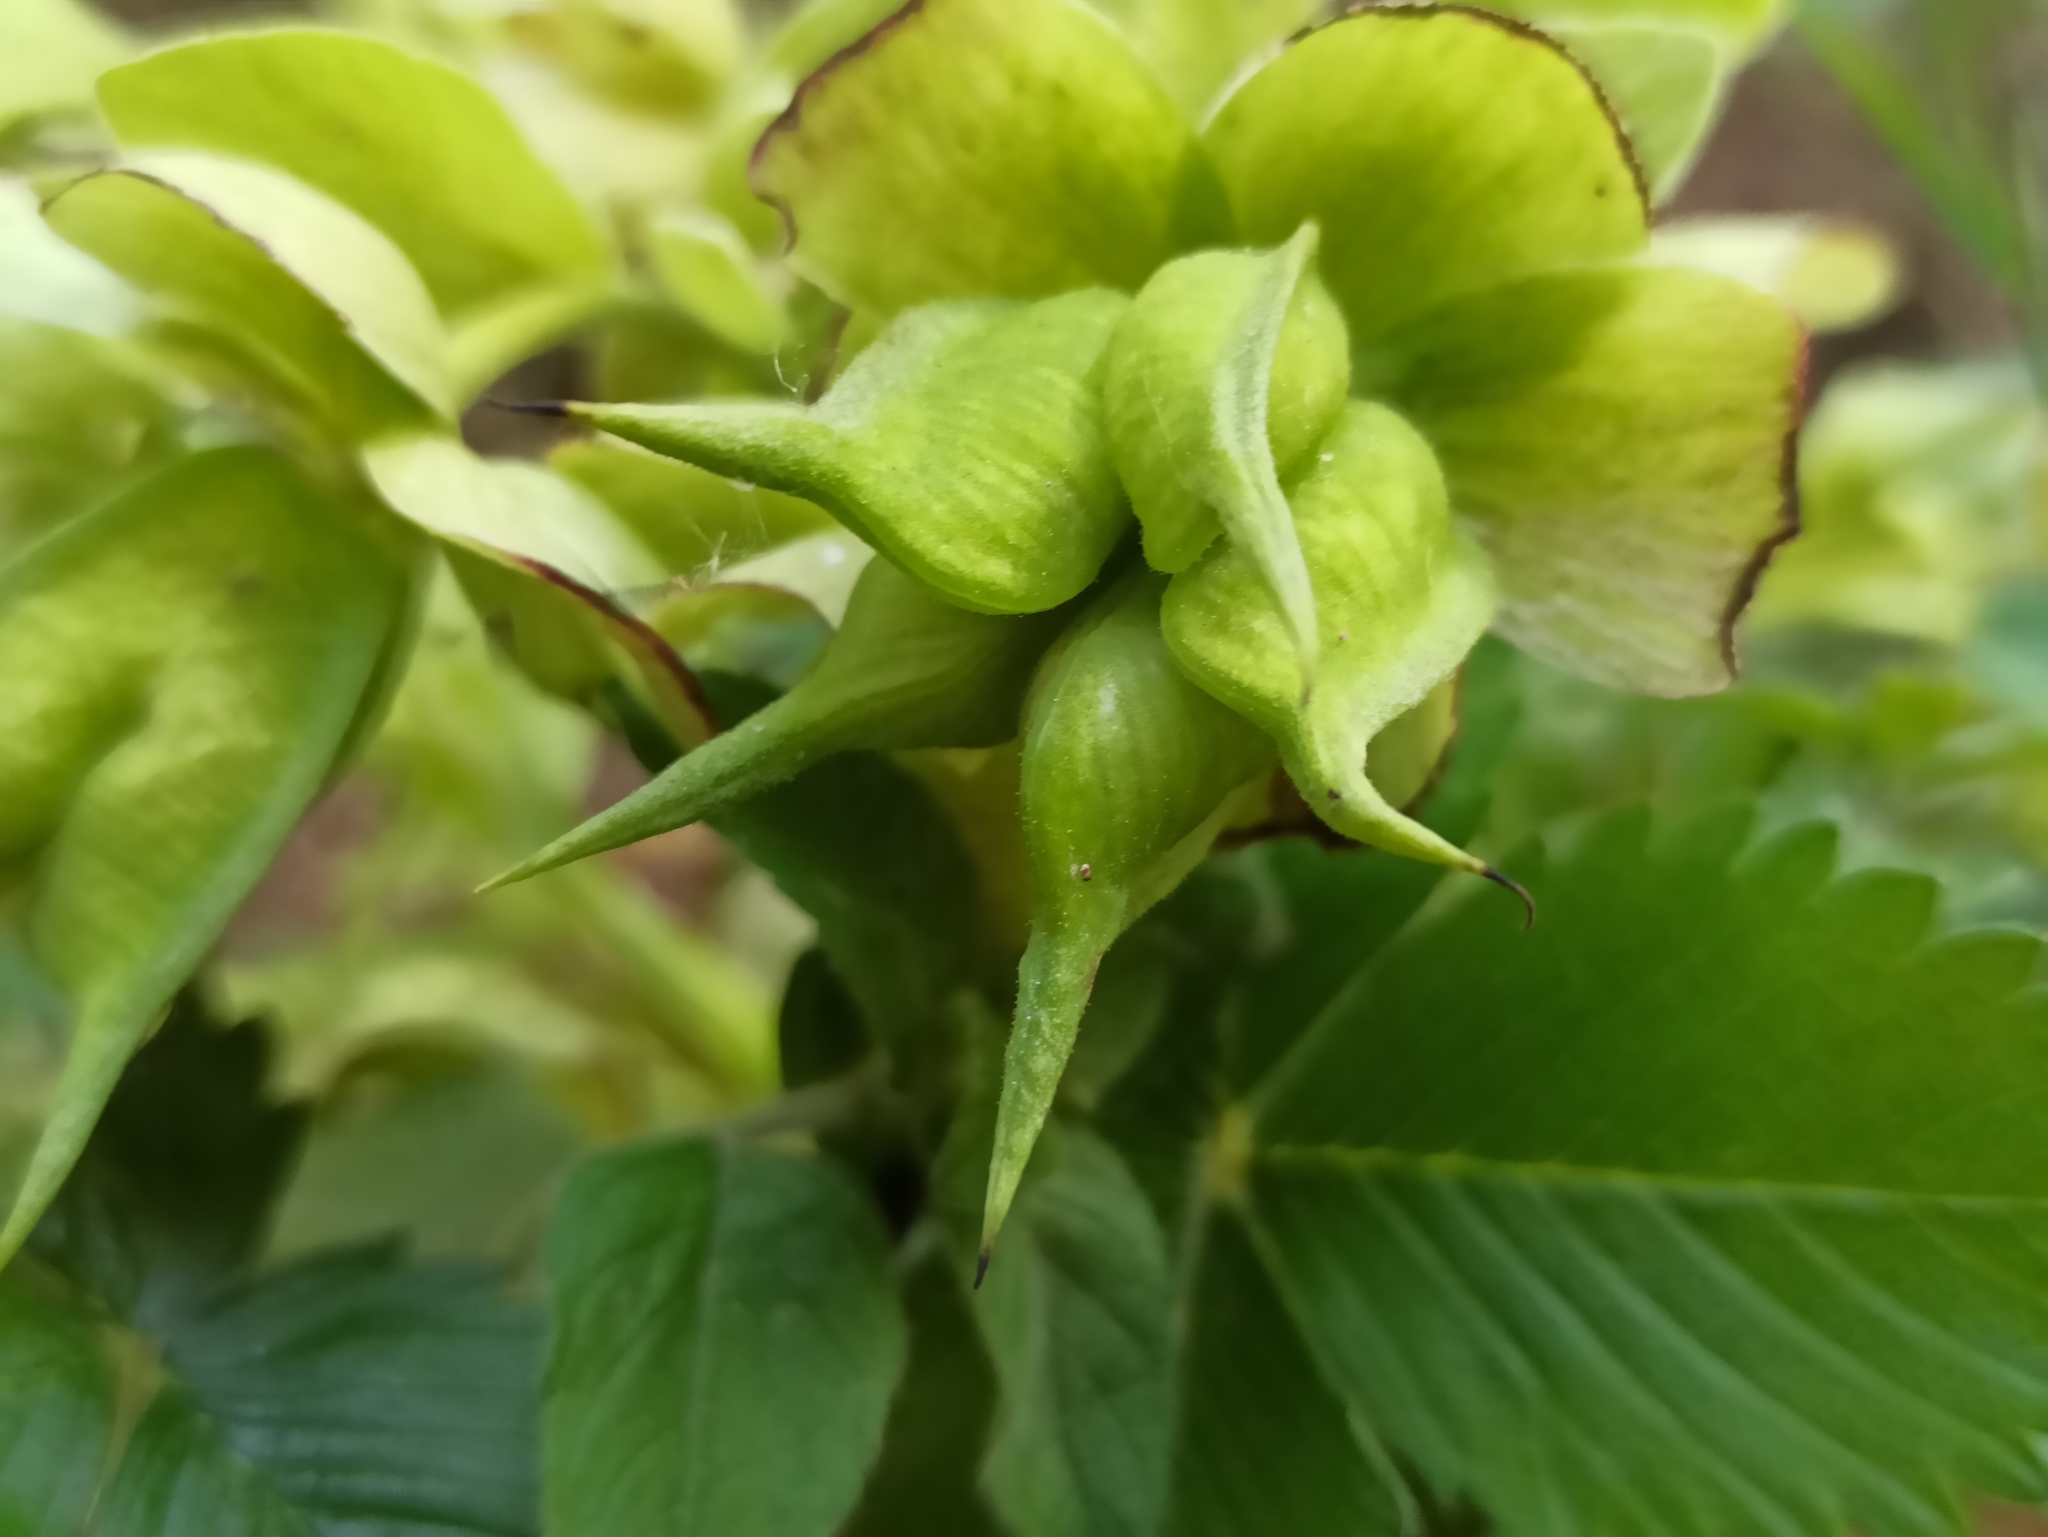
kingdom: Plantae
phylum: Tracheophyta
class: Magnoliopsida
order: Ranunculales
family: Ranunculaceae
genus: Helleborus
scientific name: Helleborus foetidus
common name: Stinking hellebore
